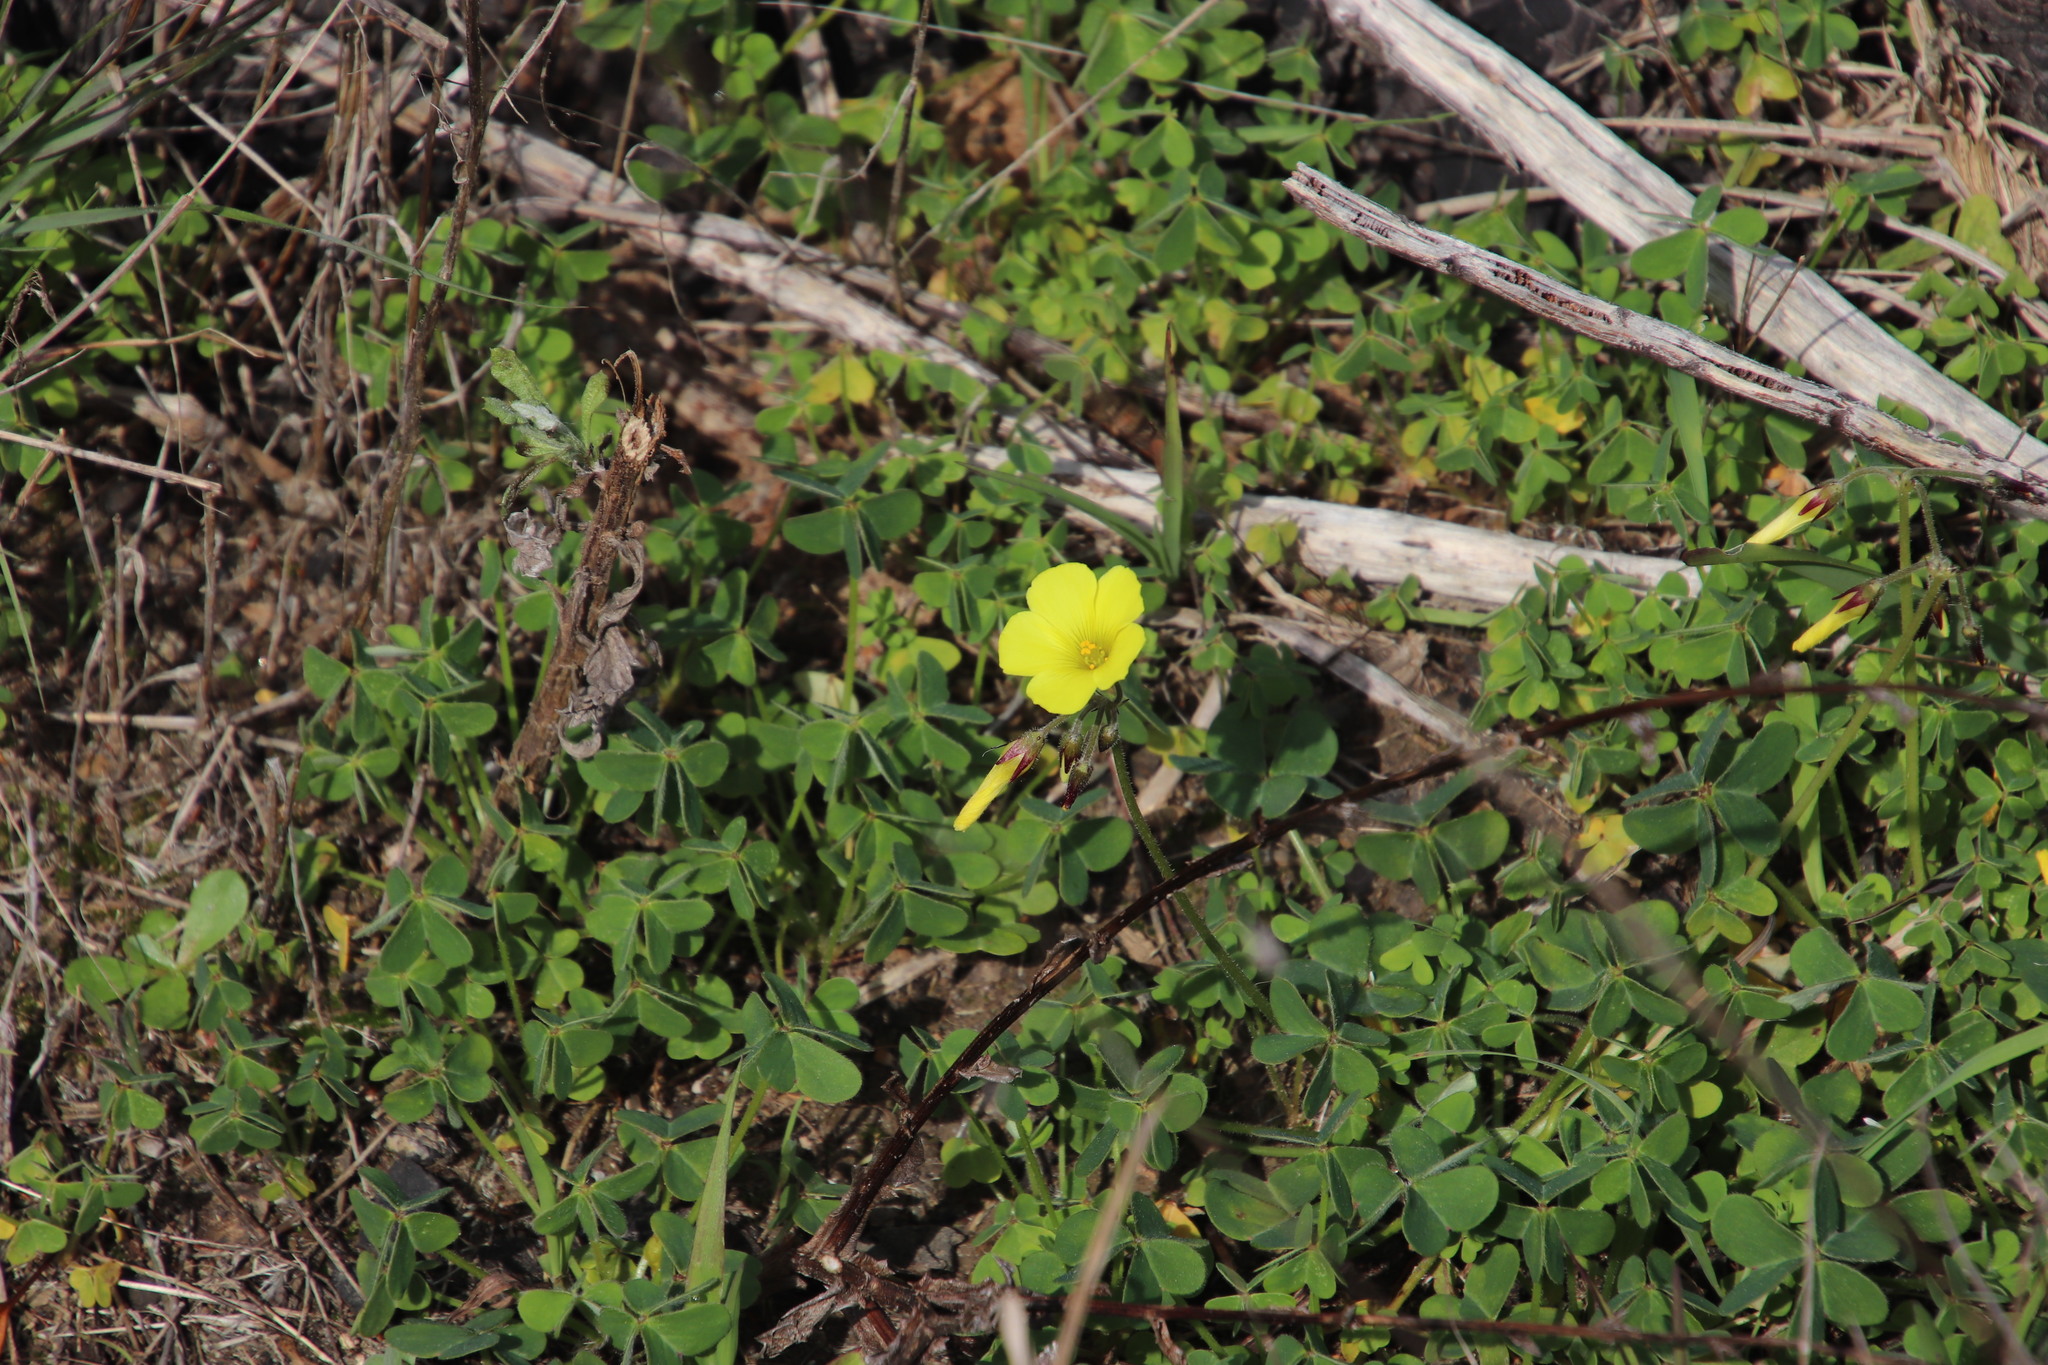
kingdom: Plantae
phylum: Tracheophyta
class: Magnoliopsida
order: Oxalidales
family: Oxalidaceae
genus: Oxalis
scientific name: Oxalis pes-caprae
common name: Bermuda-buttercup
